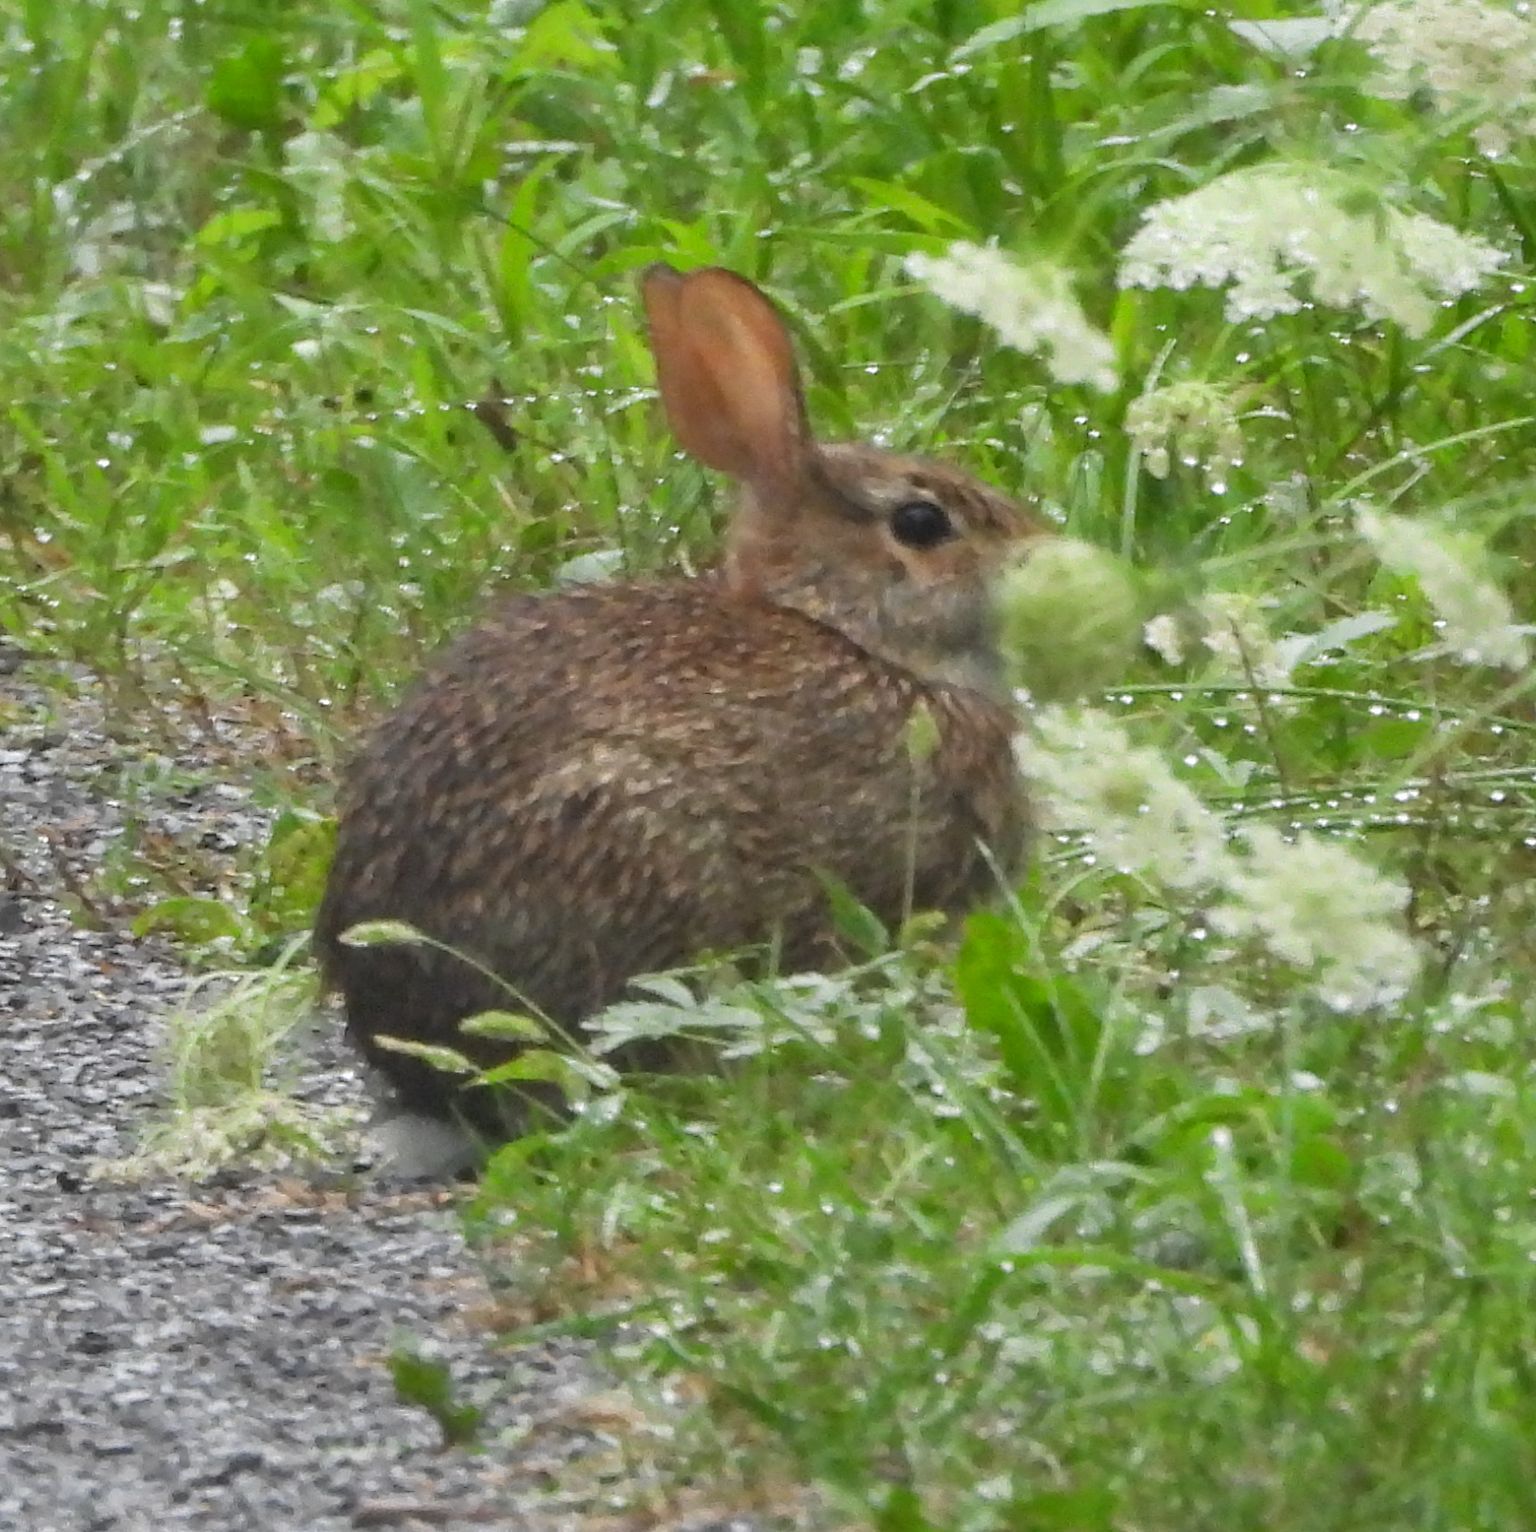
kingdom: Animalia
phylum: Chordata
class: Mammalia
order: Lagomorpha
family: Leporidae
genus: Sylvilagus
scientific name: Sylvilagus floridanus
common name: Eastern cottontail
